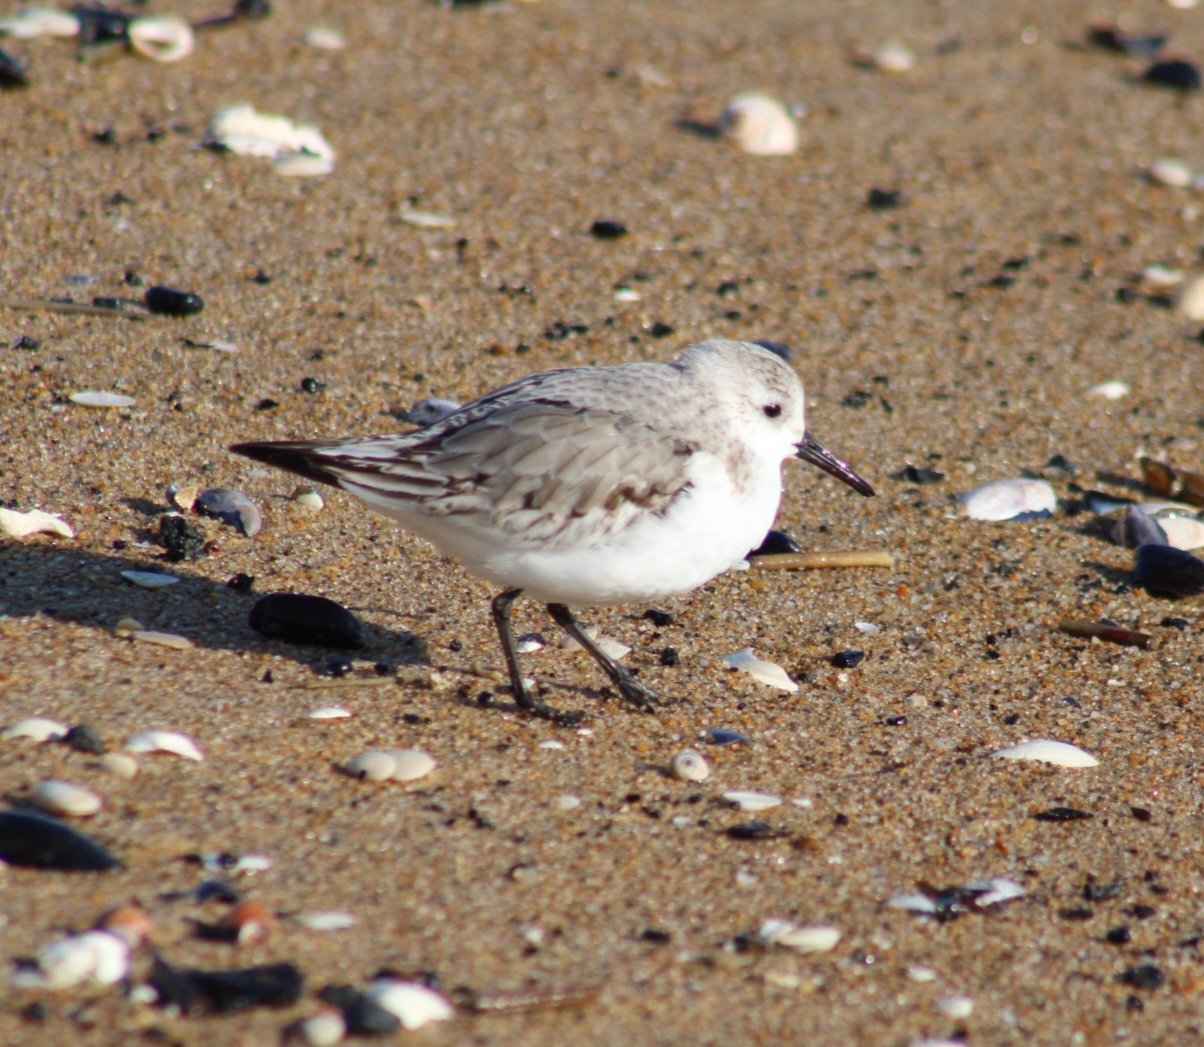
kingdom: Animalia
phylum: Chordata
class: Aves
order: Charadriiformes
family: Scolopacidae
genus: Calidris
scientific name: Calidris alba
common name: Sanderling
